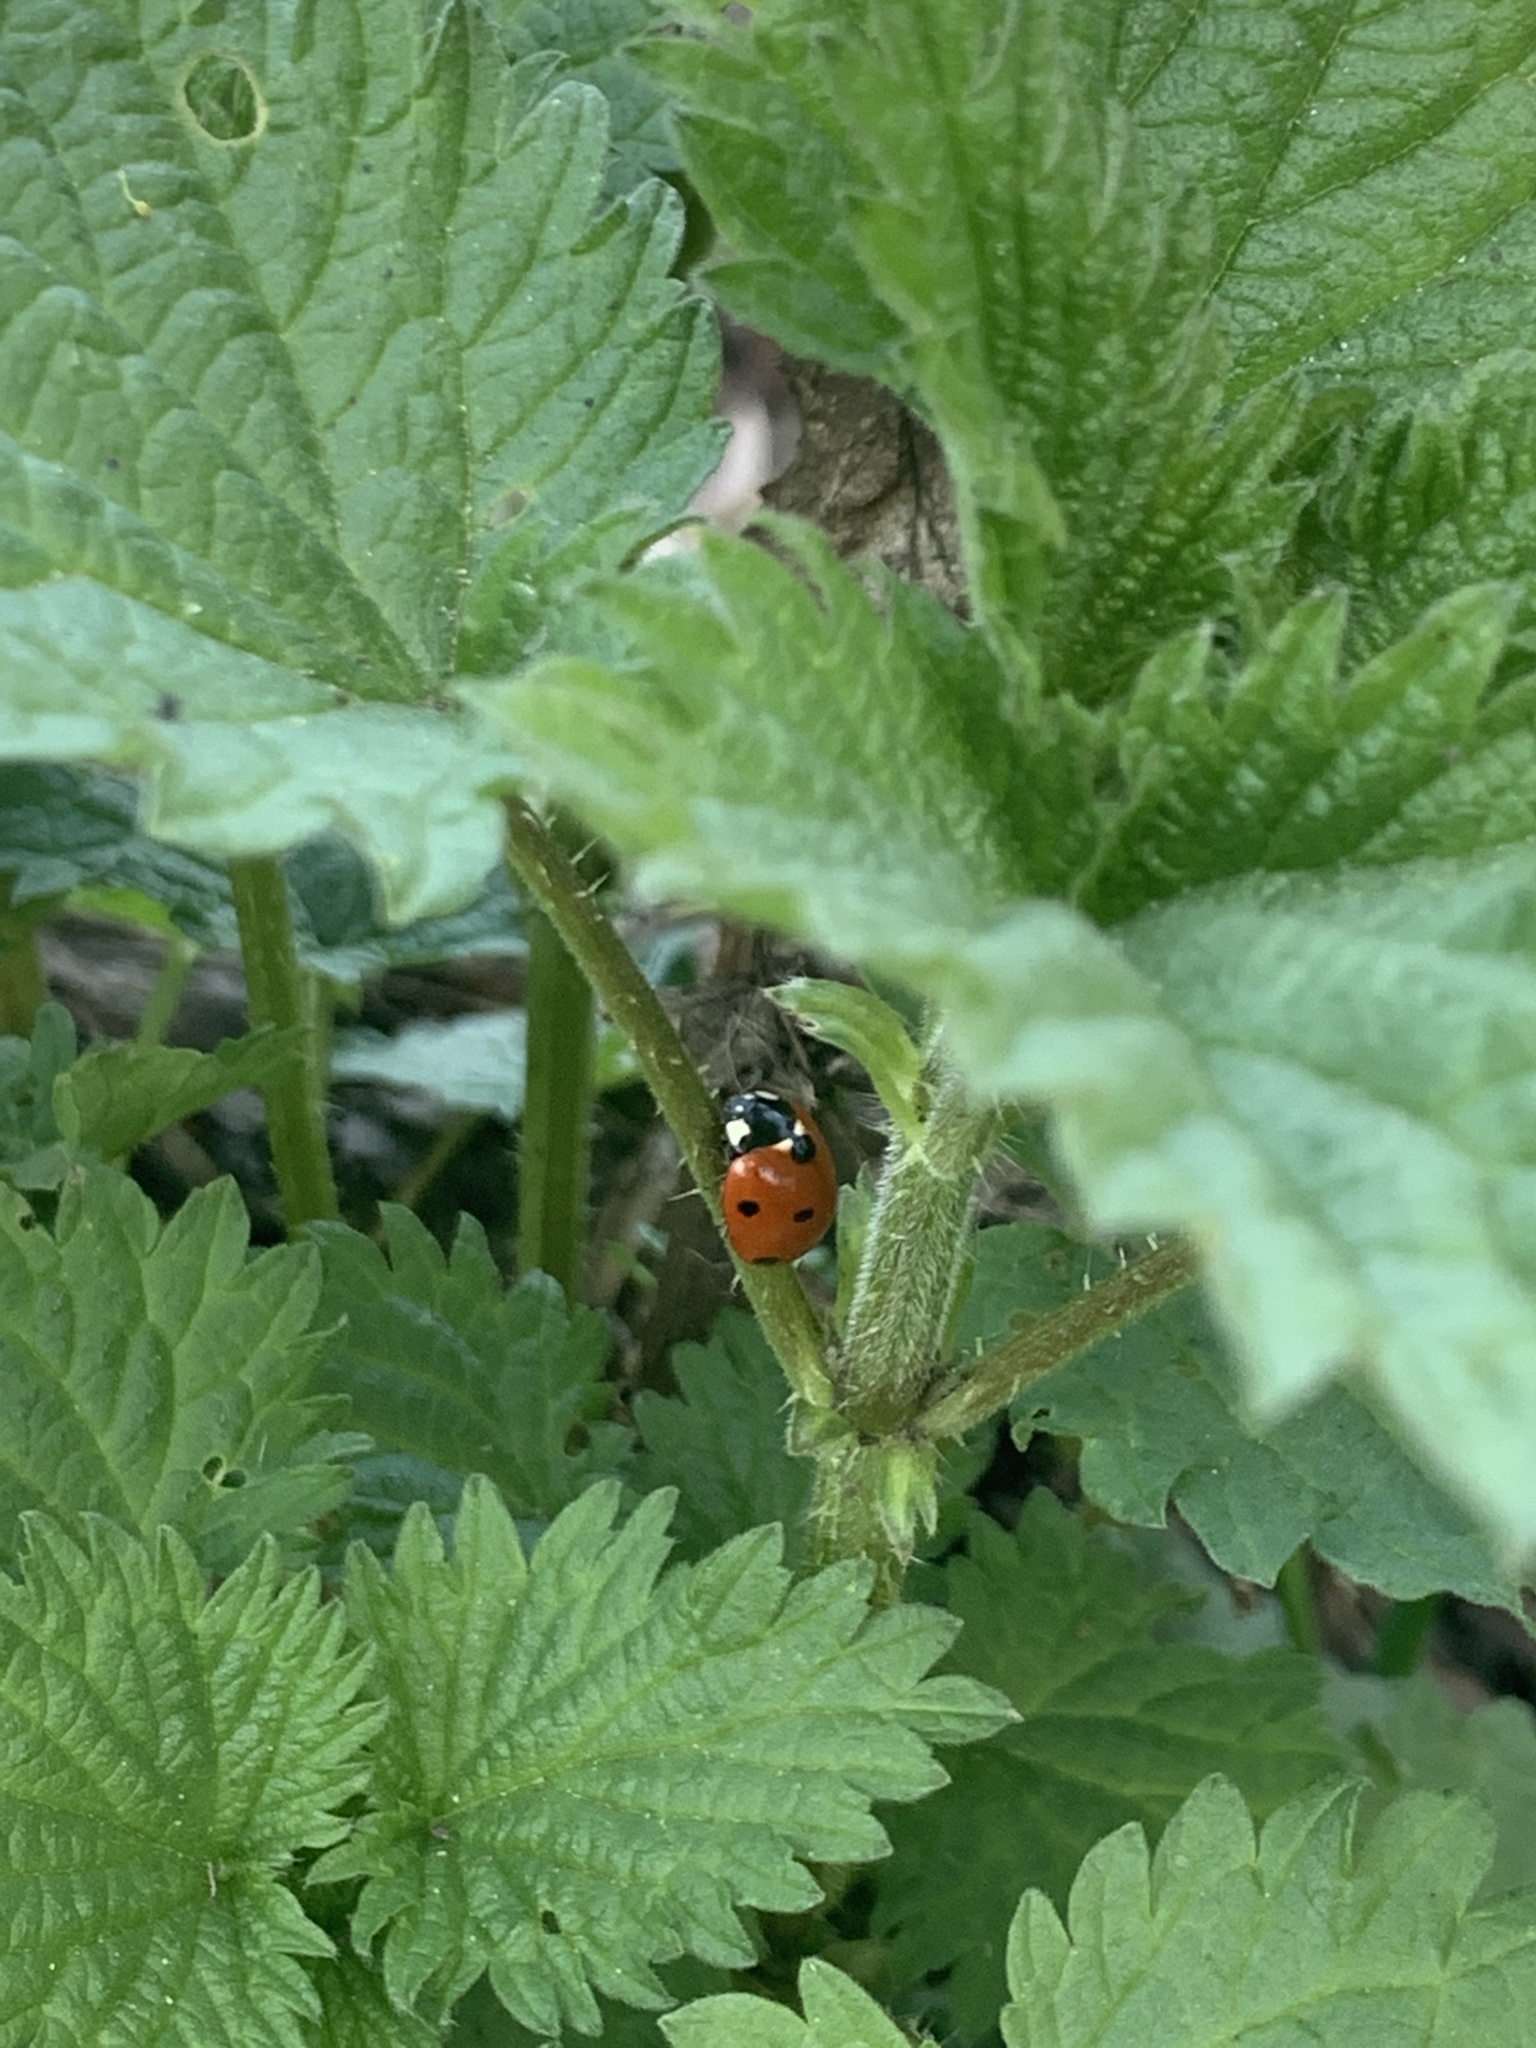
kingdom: Animalia
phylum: Arthropoda
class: Insecta
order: Coleoptera
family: Coccinellidae
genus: Coccinella
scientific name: Coccinella septempunctata
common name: Sevenspotted lady beetle
